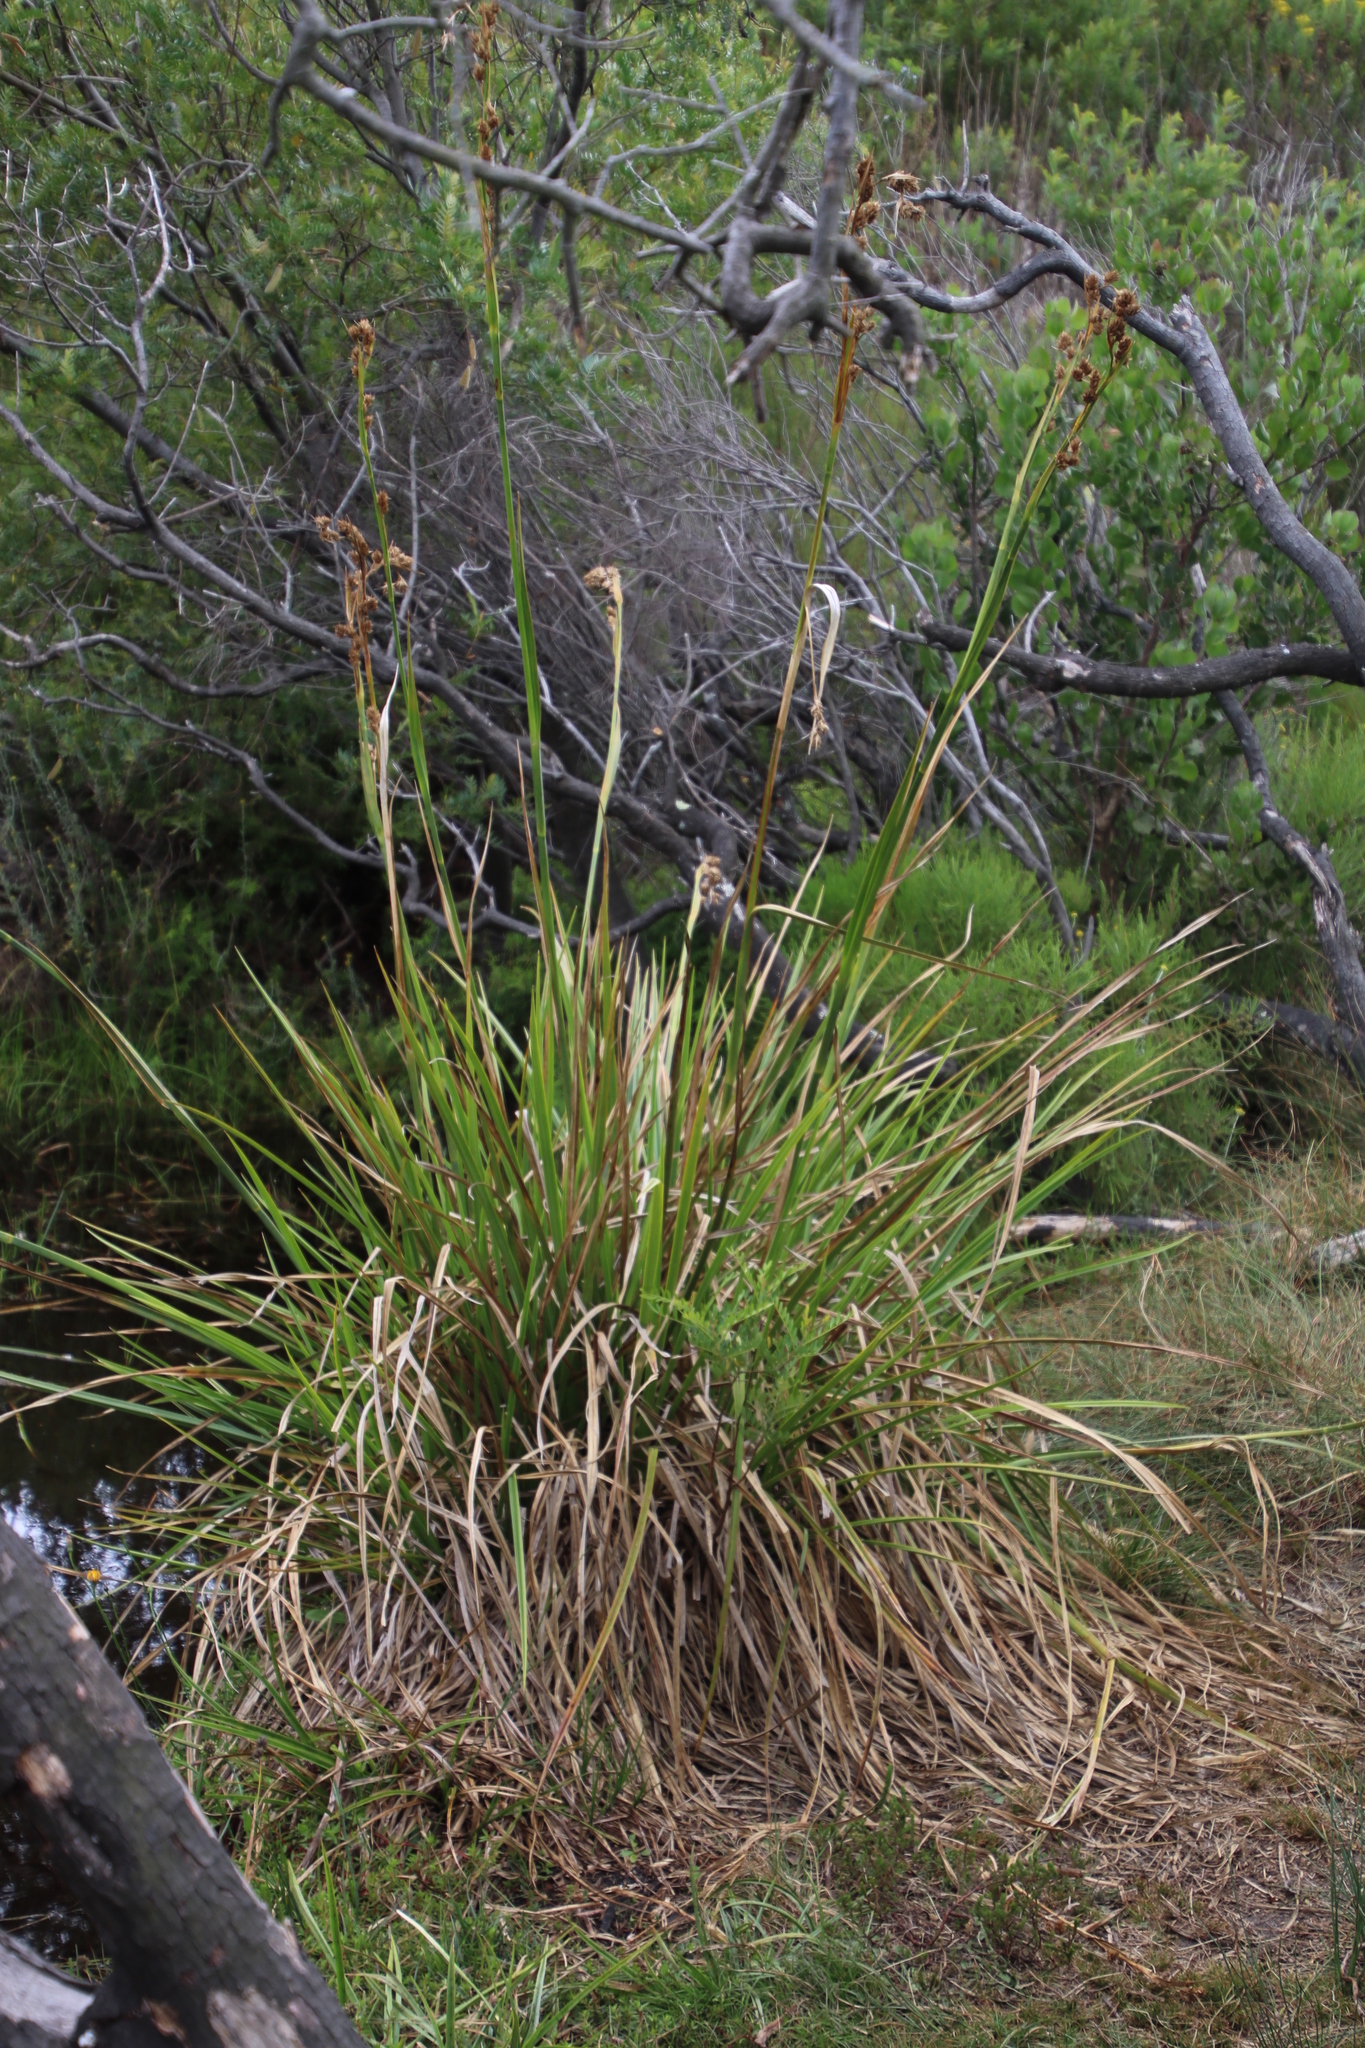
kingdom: Plantae
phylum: Tracheophyta
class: Liliopsida
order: Poales
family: Cyperaceae
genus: Carpha
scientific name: Carpha glomerata
